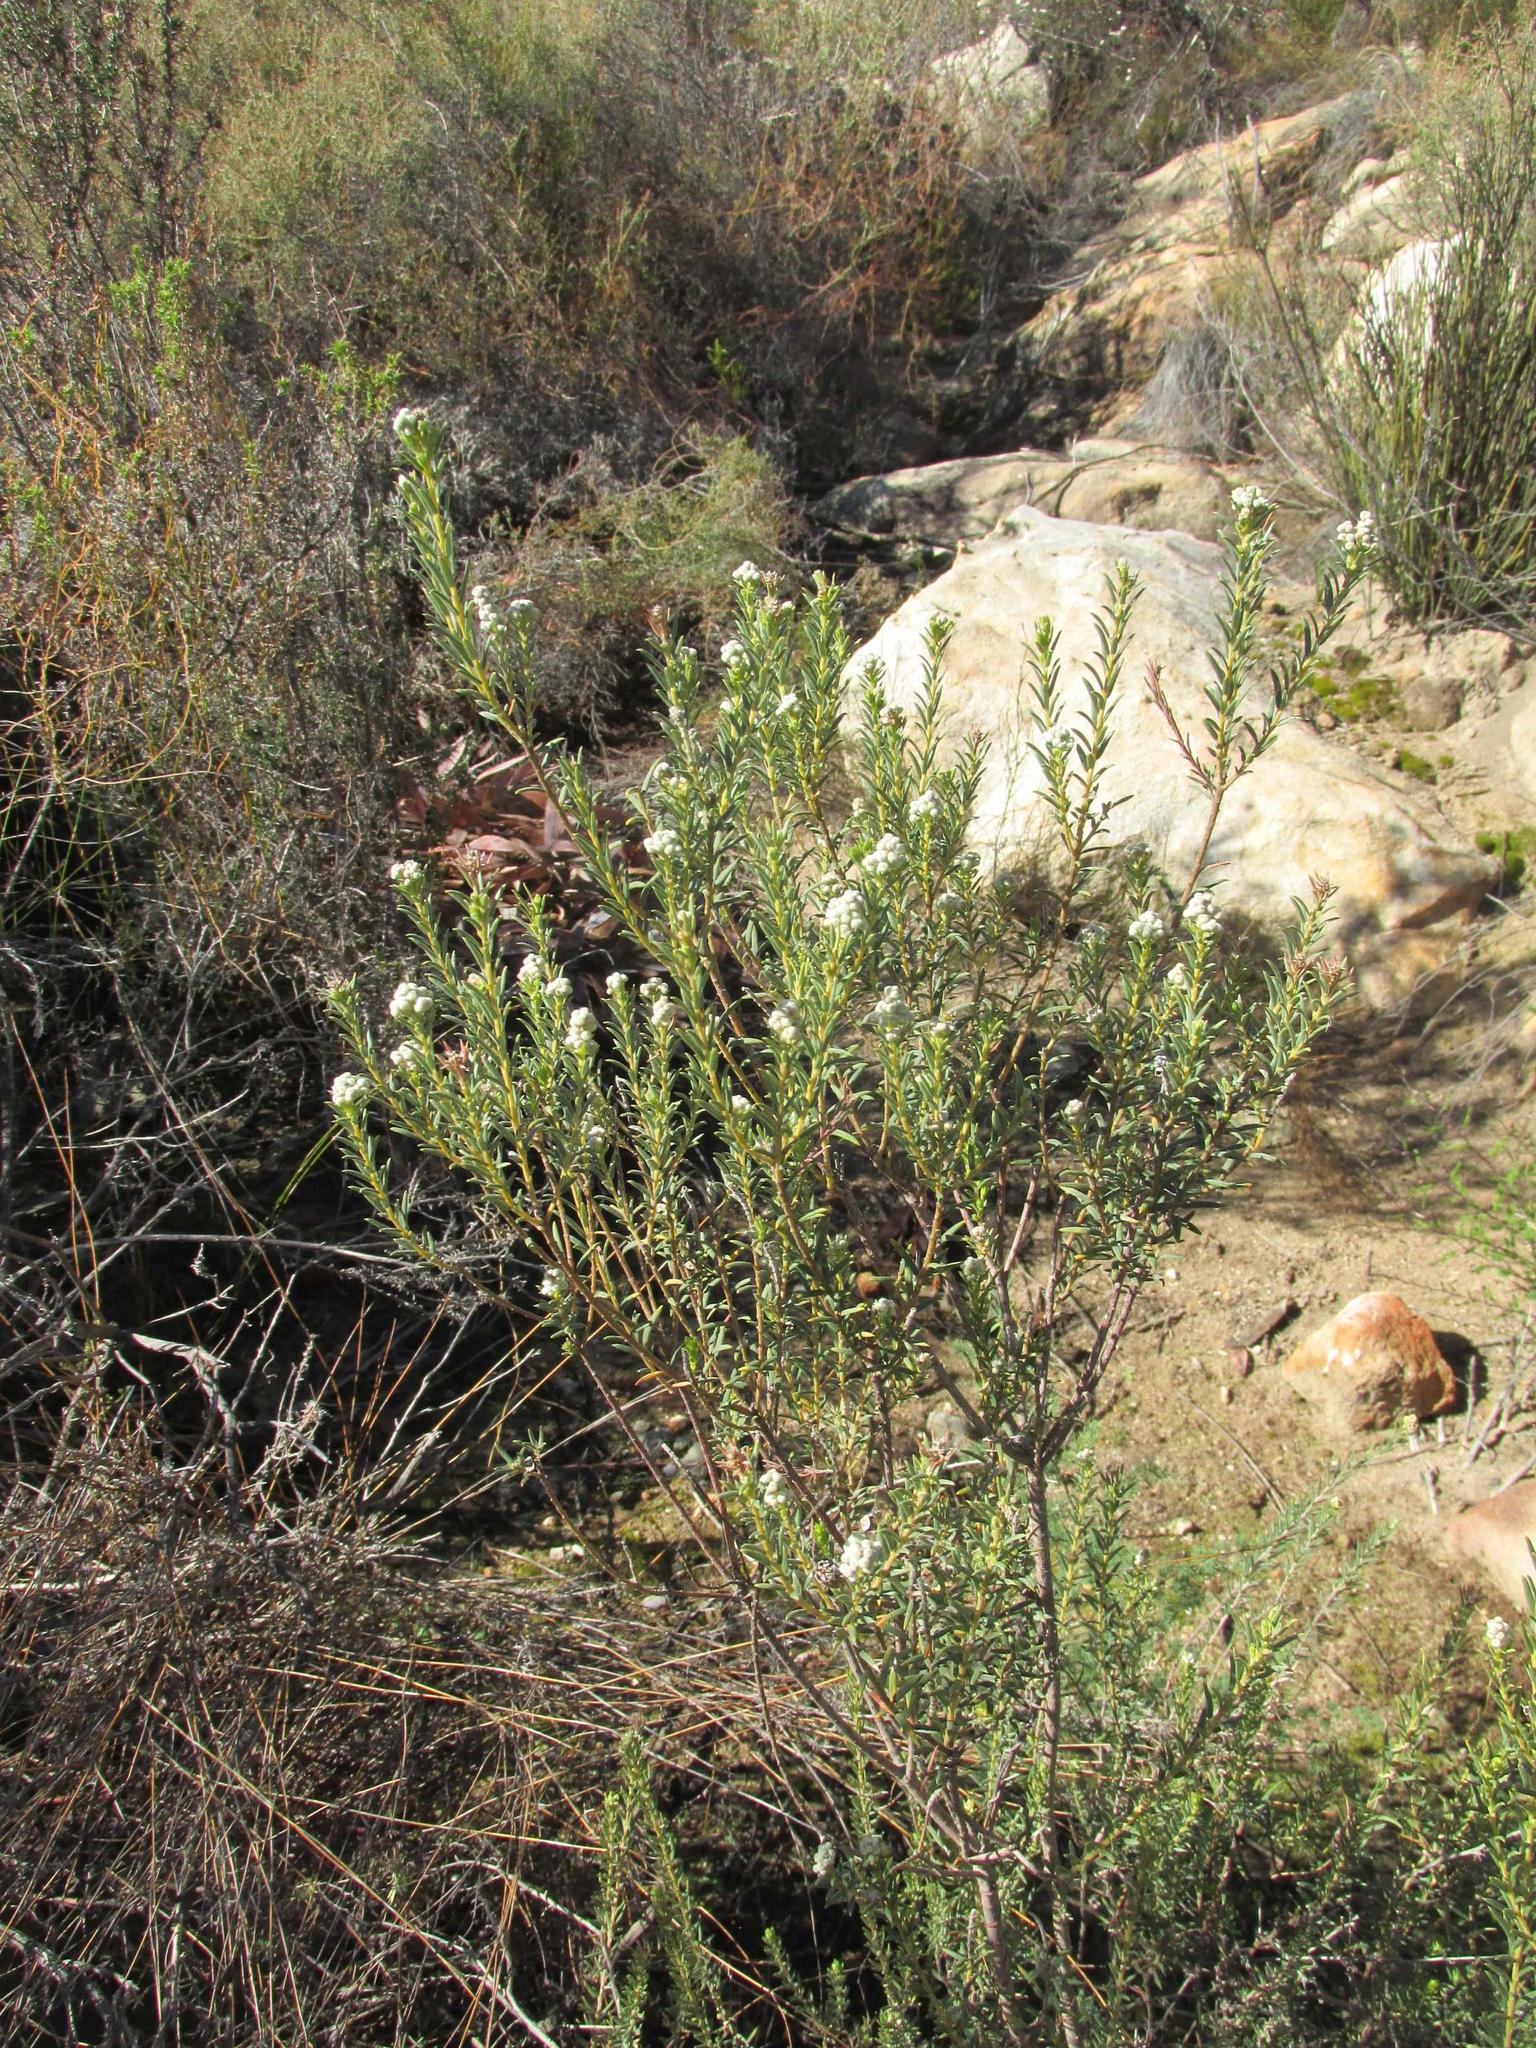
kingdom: Plantae
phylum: Tracheophyta
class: Magnoliopsida
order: Rosales
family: Rhamnaceae
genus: Phylica
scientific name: Phylica rigidifolia
